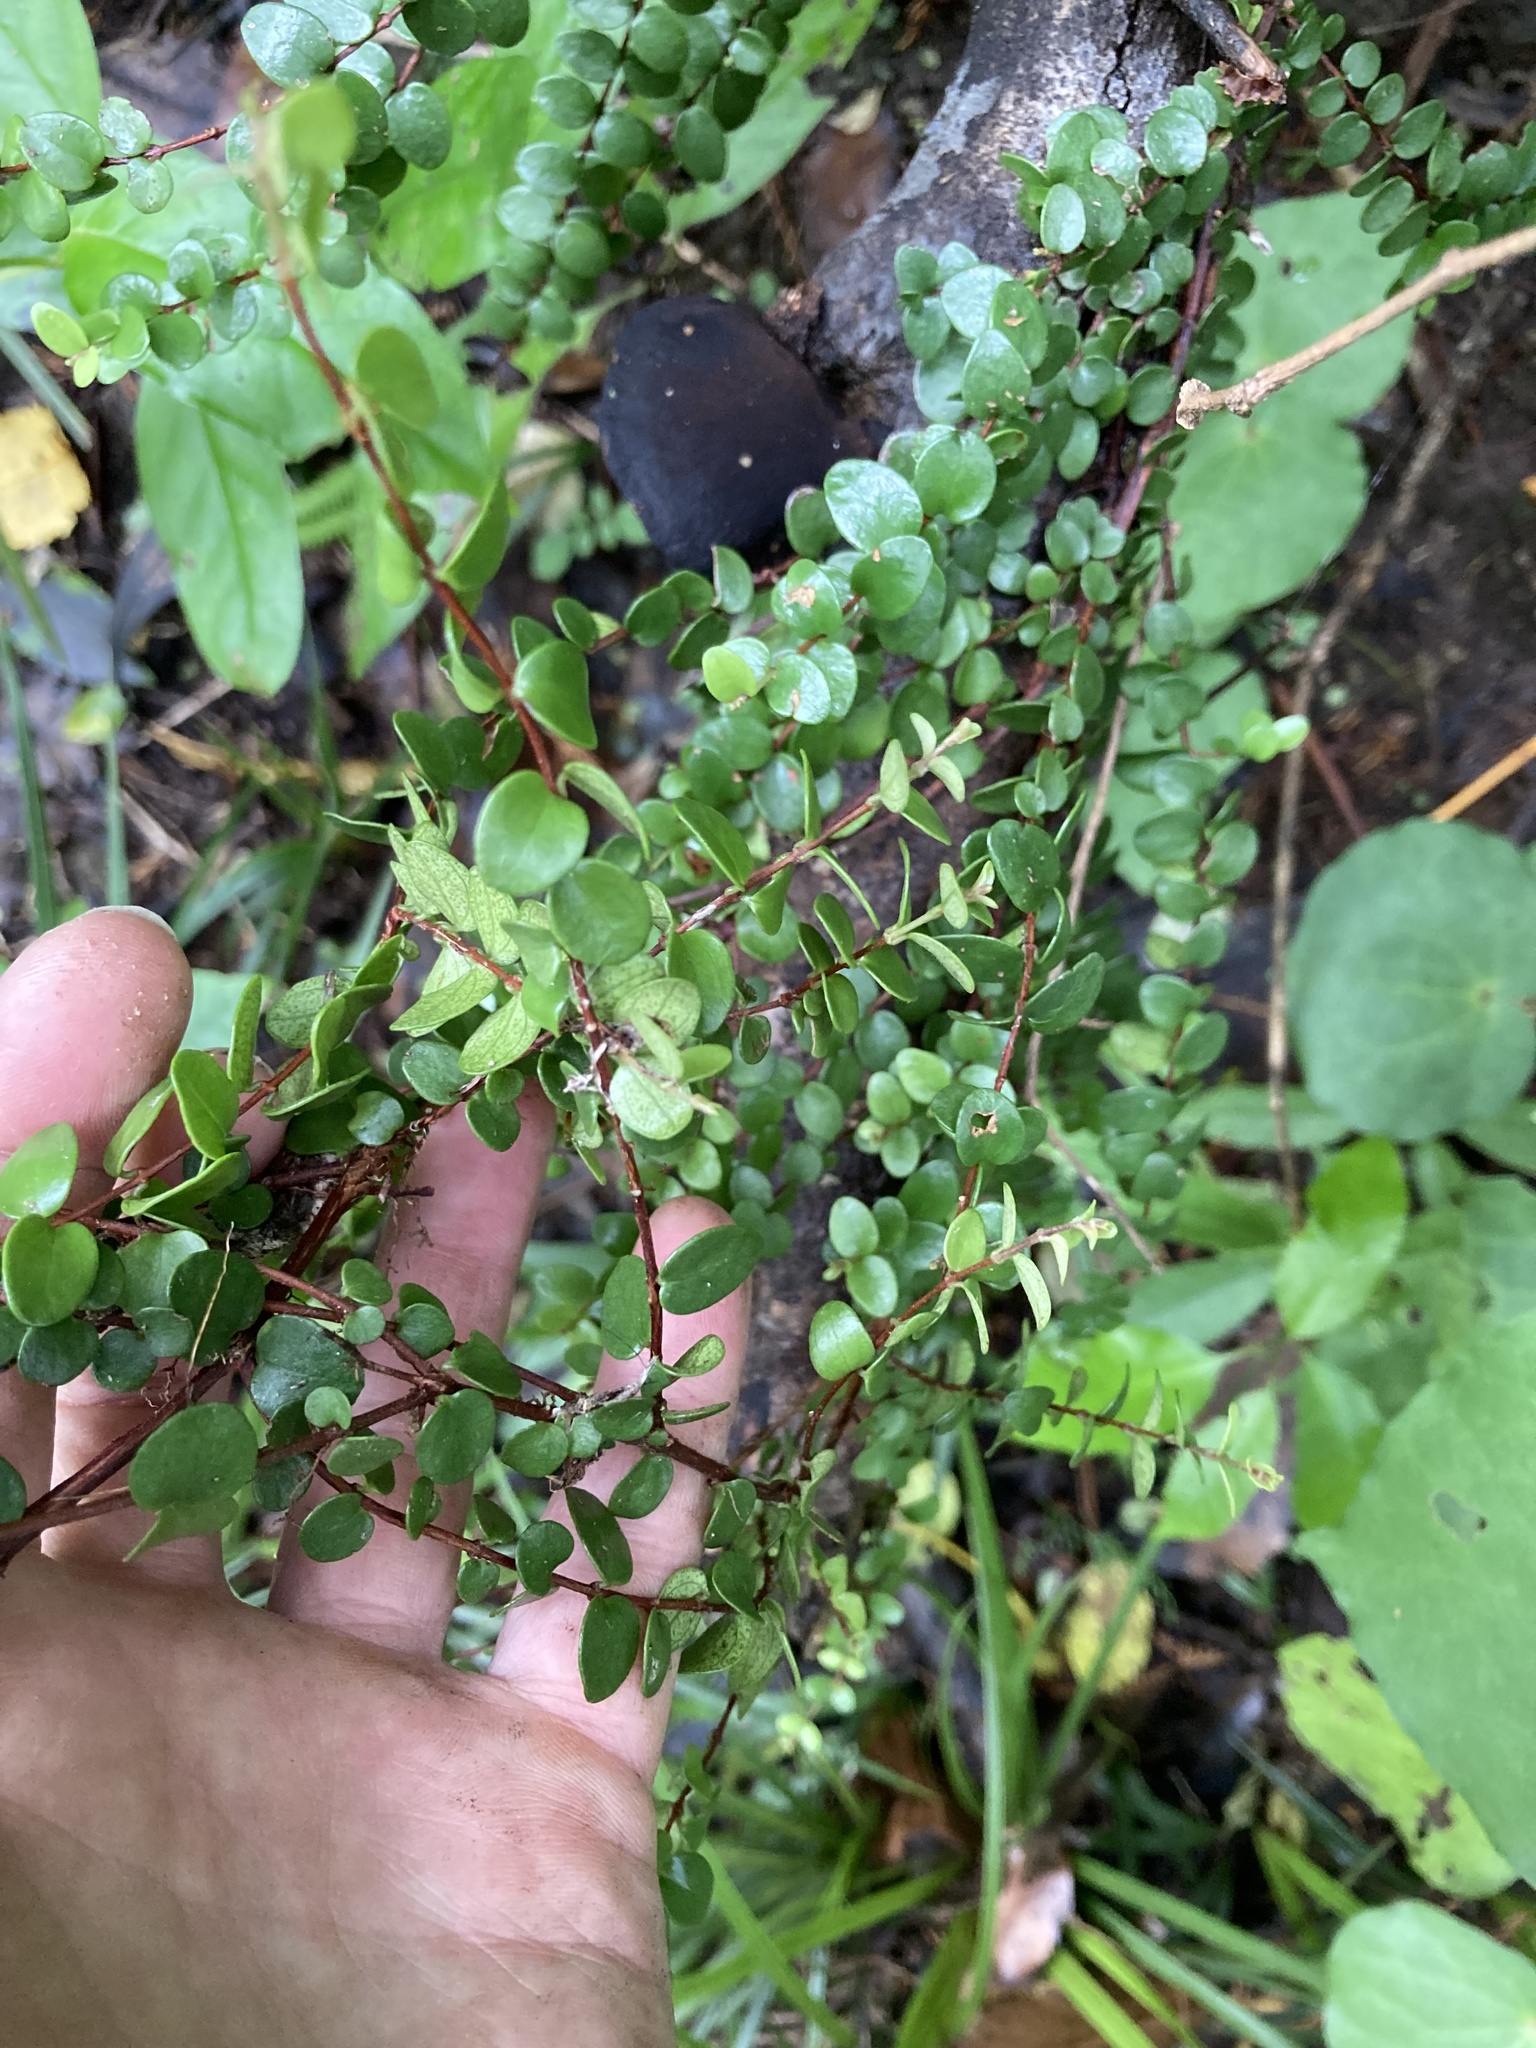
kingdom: Plantae
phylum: Tracheophyta
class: Magnoliopsida
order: Myrtales
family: Myrtaceae
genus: Metrosideros
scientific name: Metrosideros perforata
